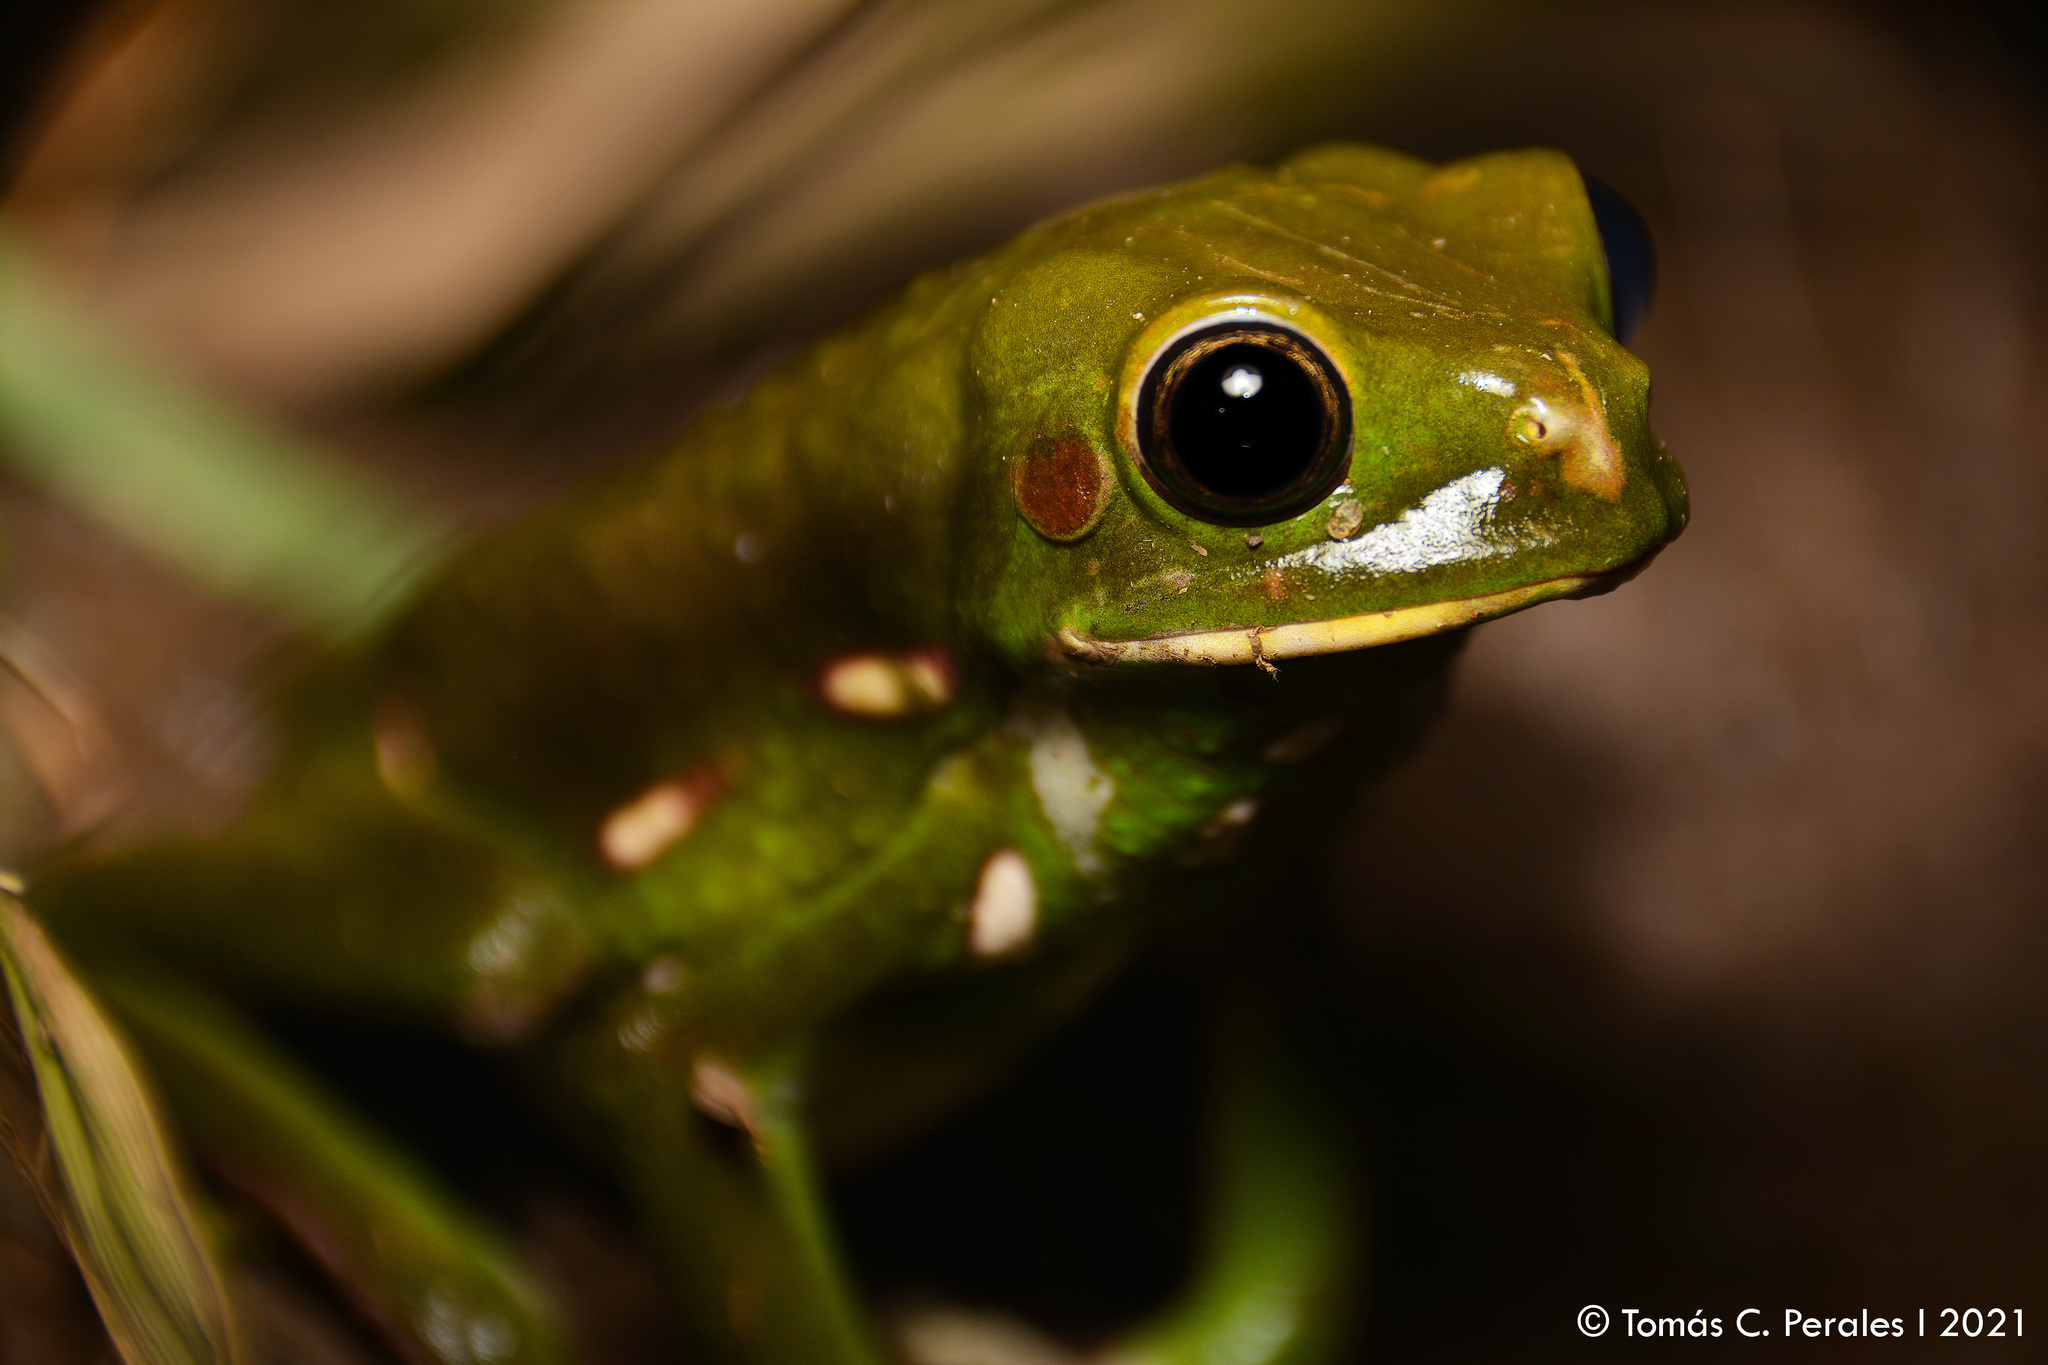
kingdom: Animalia
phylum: Chordata
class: Amphibia
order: Anura
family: Phyllomedusidae
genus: Phyllomedusa
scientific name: Phyllomedusa sauvagii
